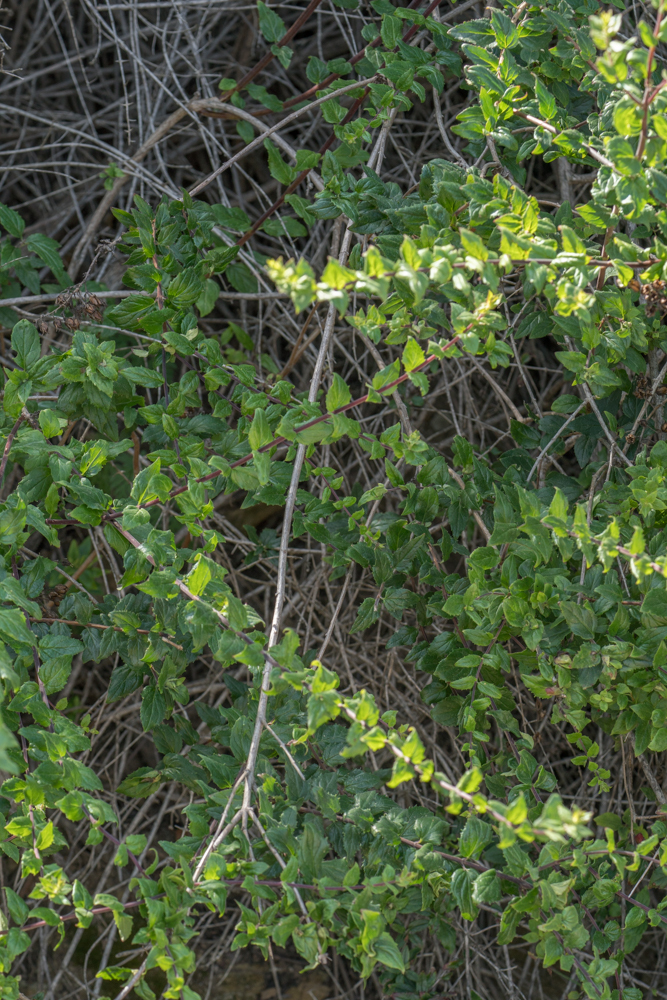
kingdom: Plantae
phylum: Tracheophyta
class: Magnoliopsida
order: Lamiales
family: Plantaginaceae
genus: Keckiella
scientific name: Keckiella cordifolia
